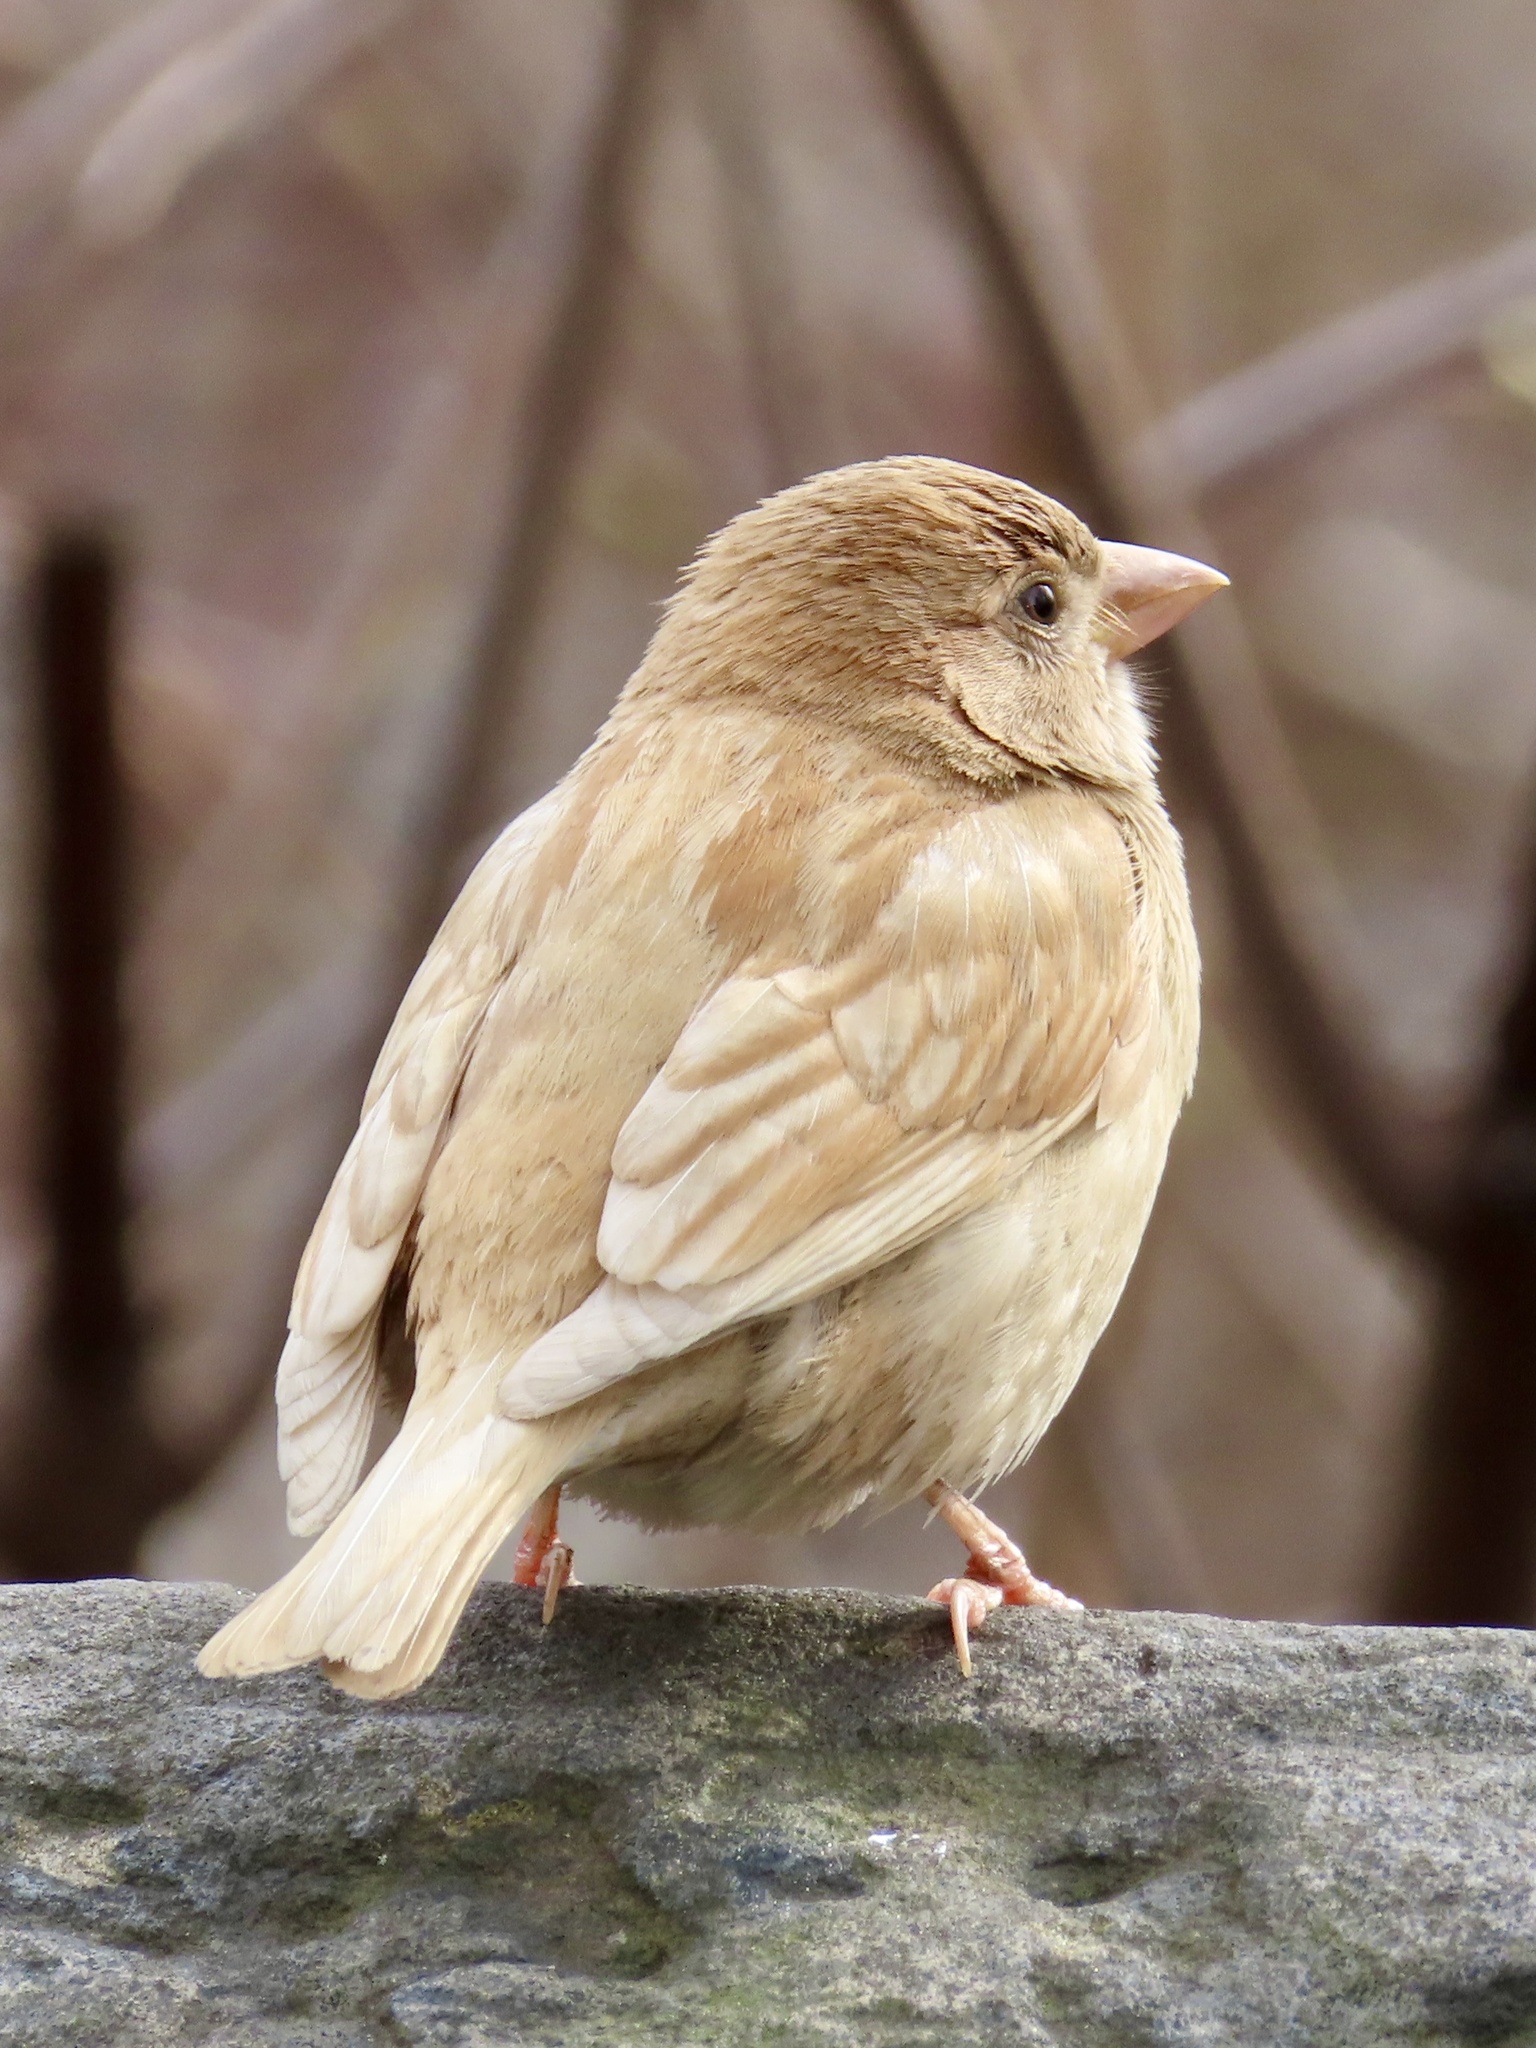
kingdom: Animalia
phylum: Chordata
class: Aves
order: Passeriformes
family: Passeridae
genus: Passer
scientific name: Passer domesticus
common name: House sparrow
